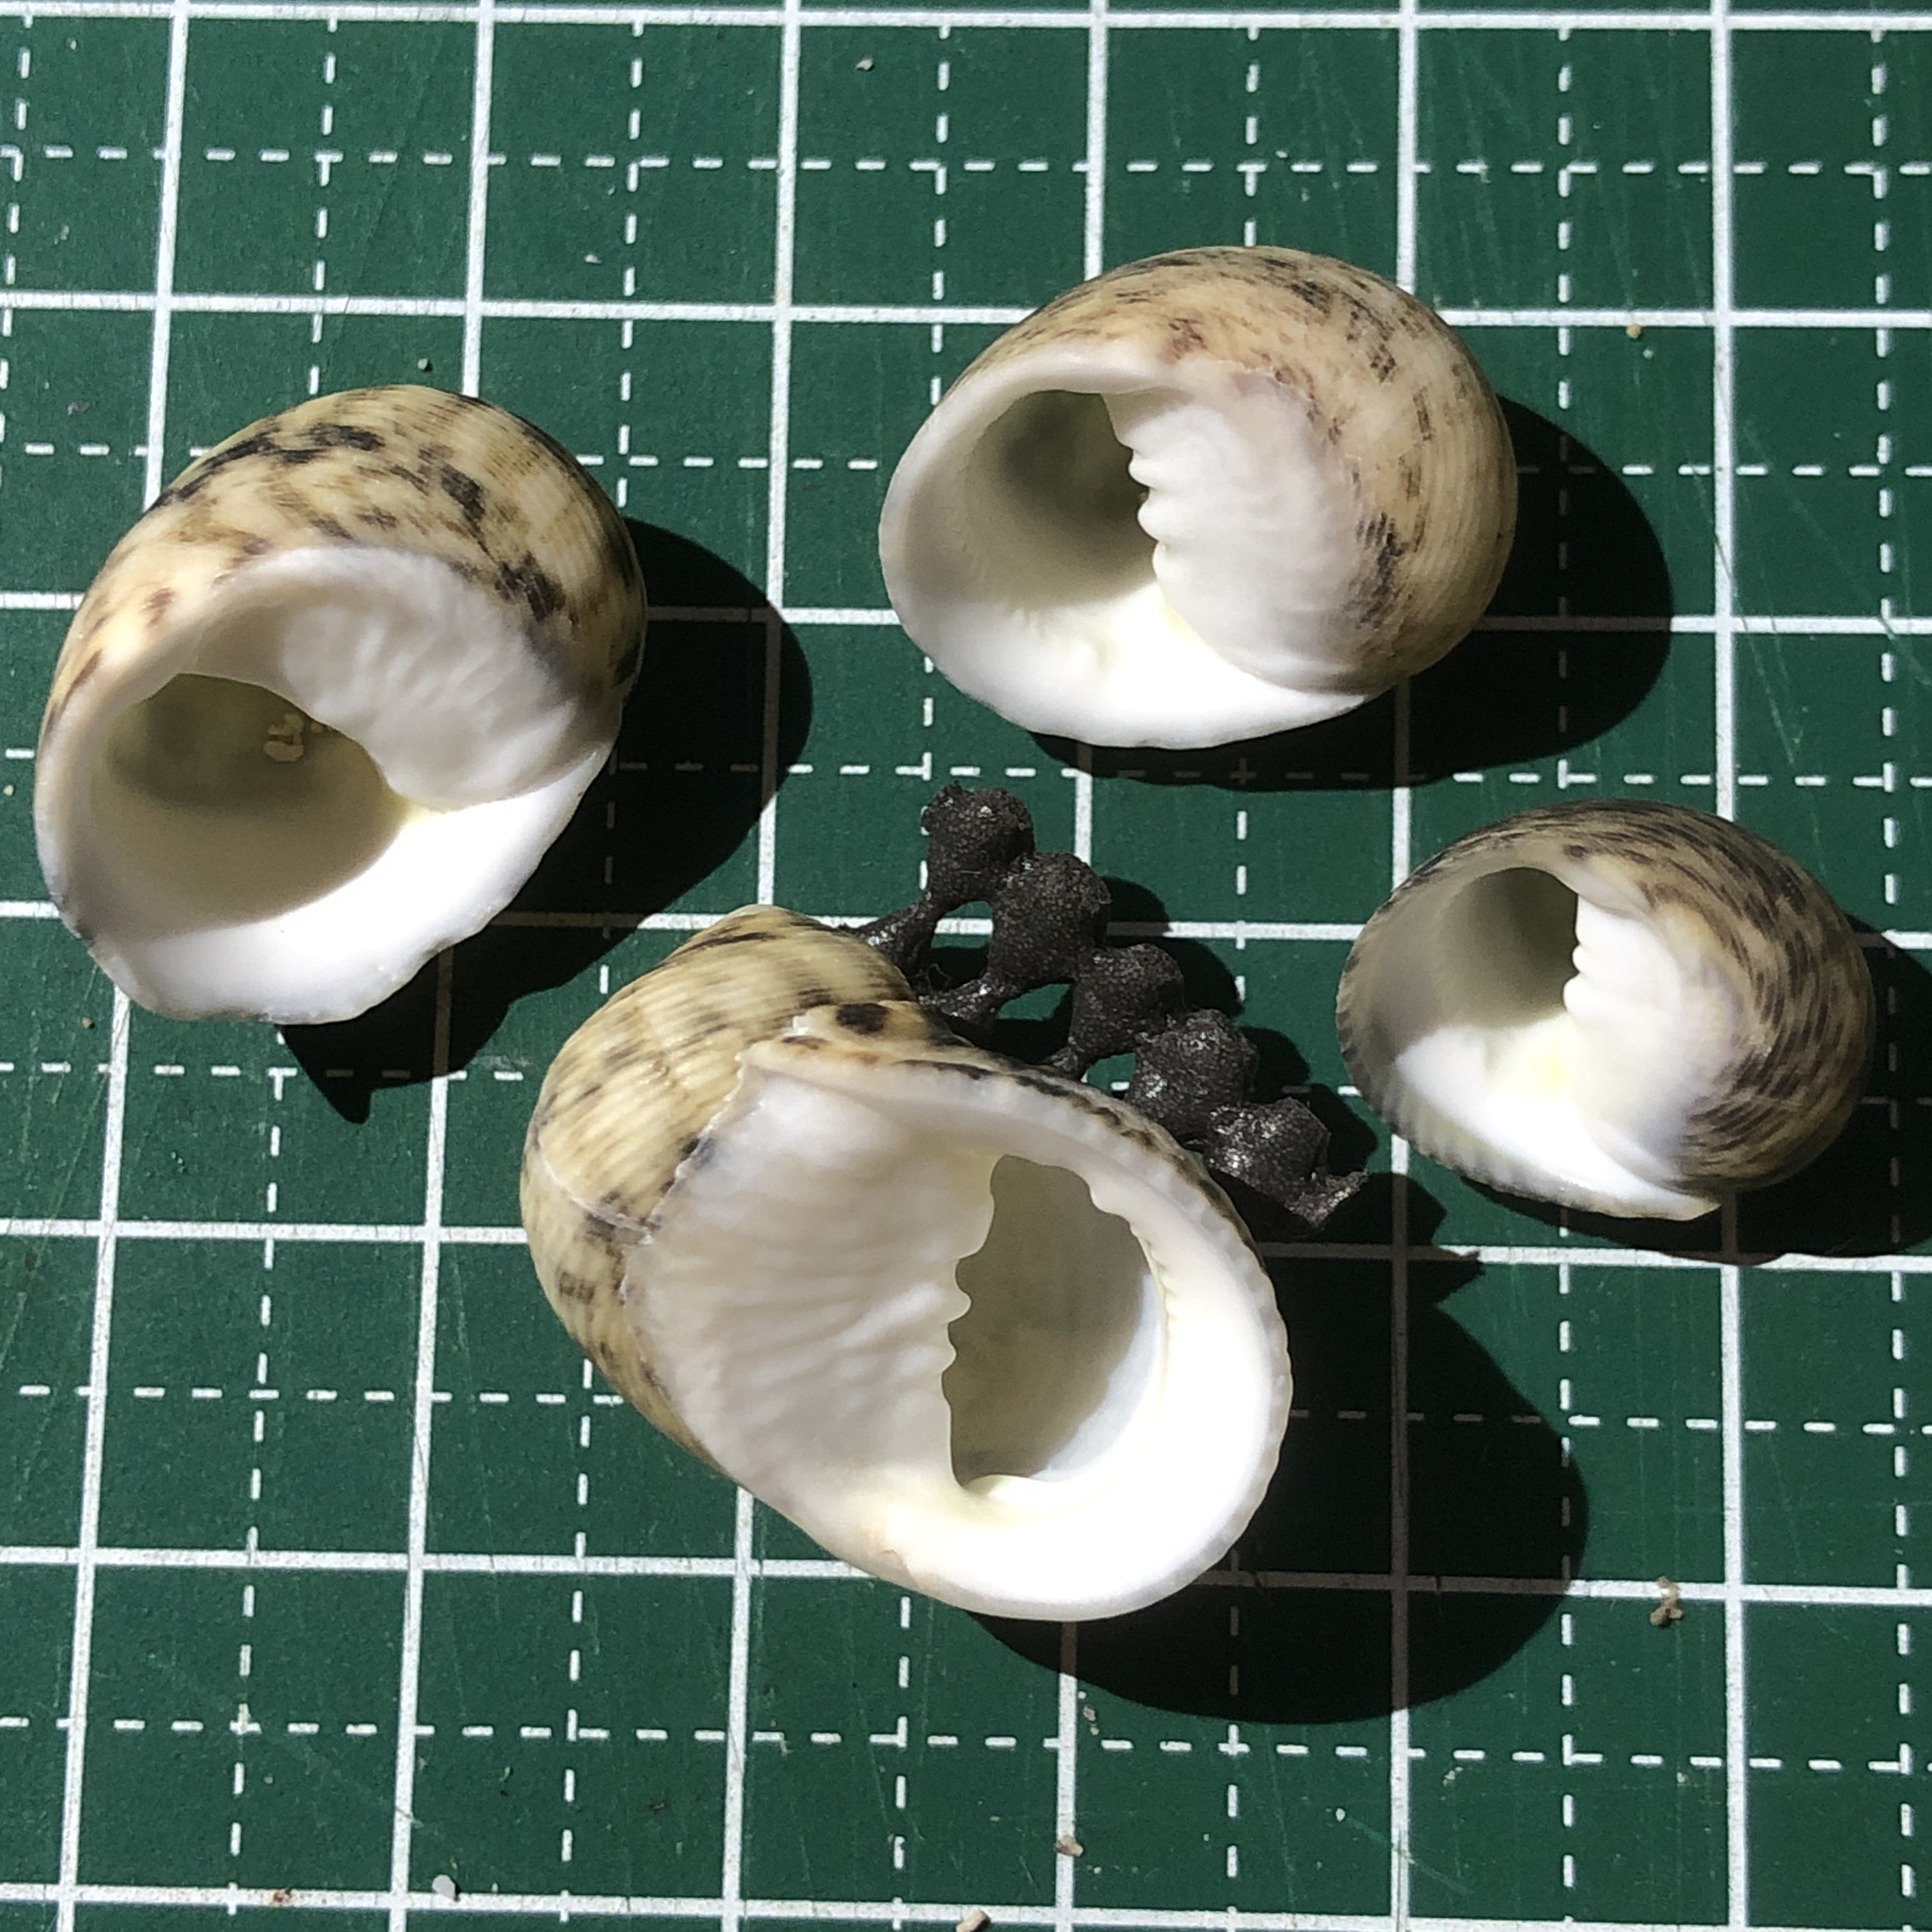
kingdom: Animalia
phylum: Mollusca
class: Gastropoda
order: Cycloneritida
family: Neritidae
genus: Nerita
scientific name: Nerita striata
